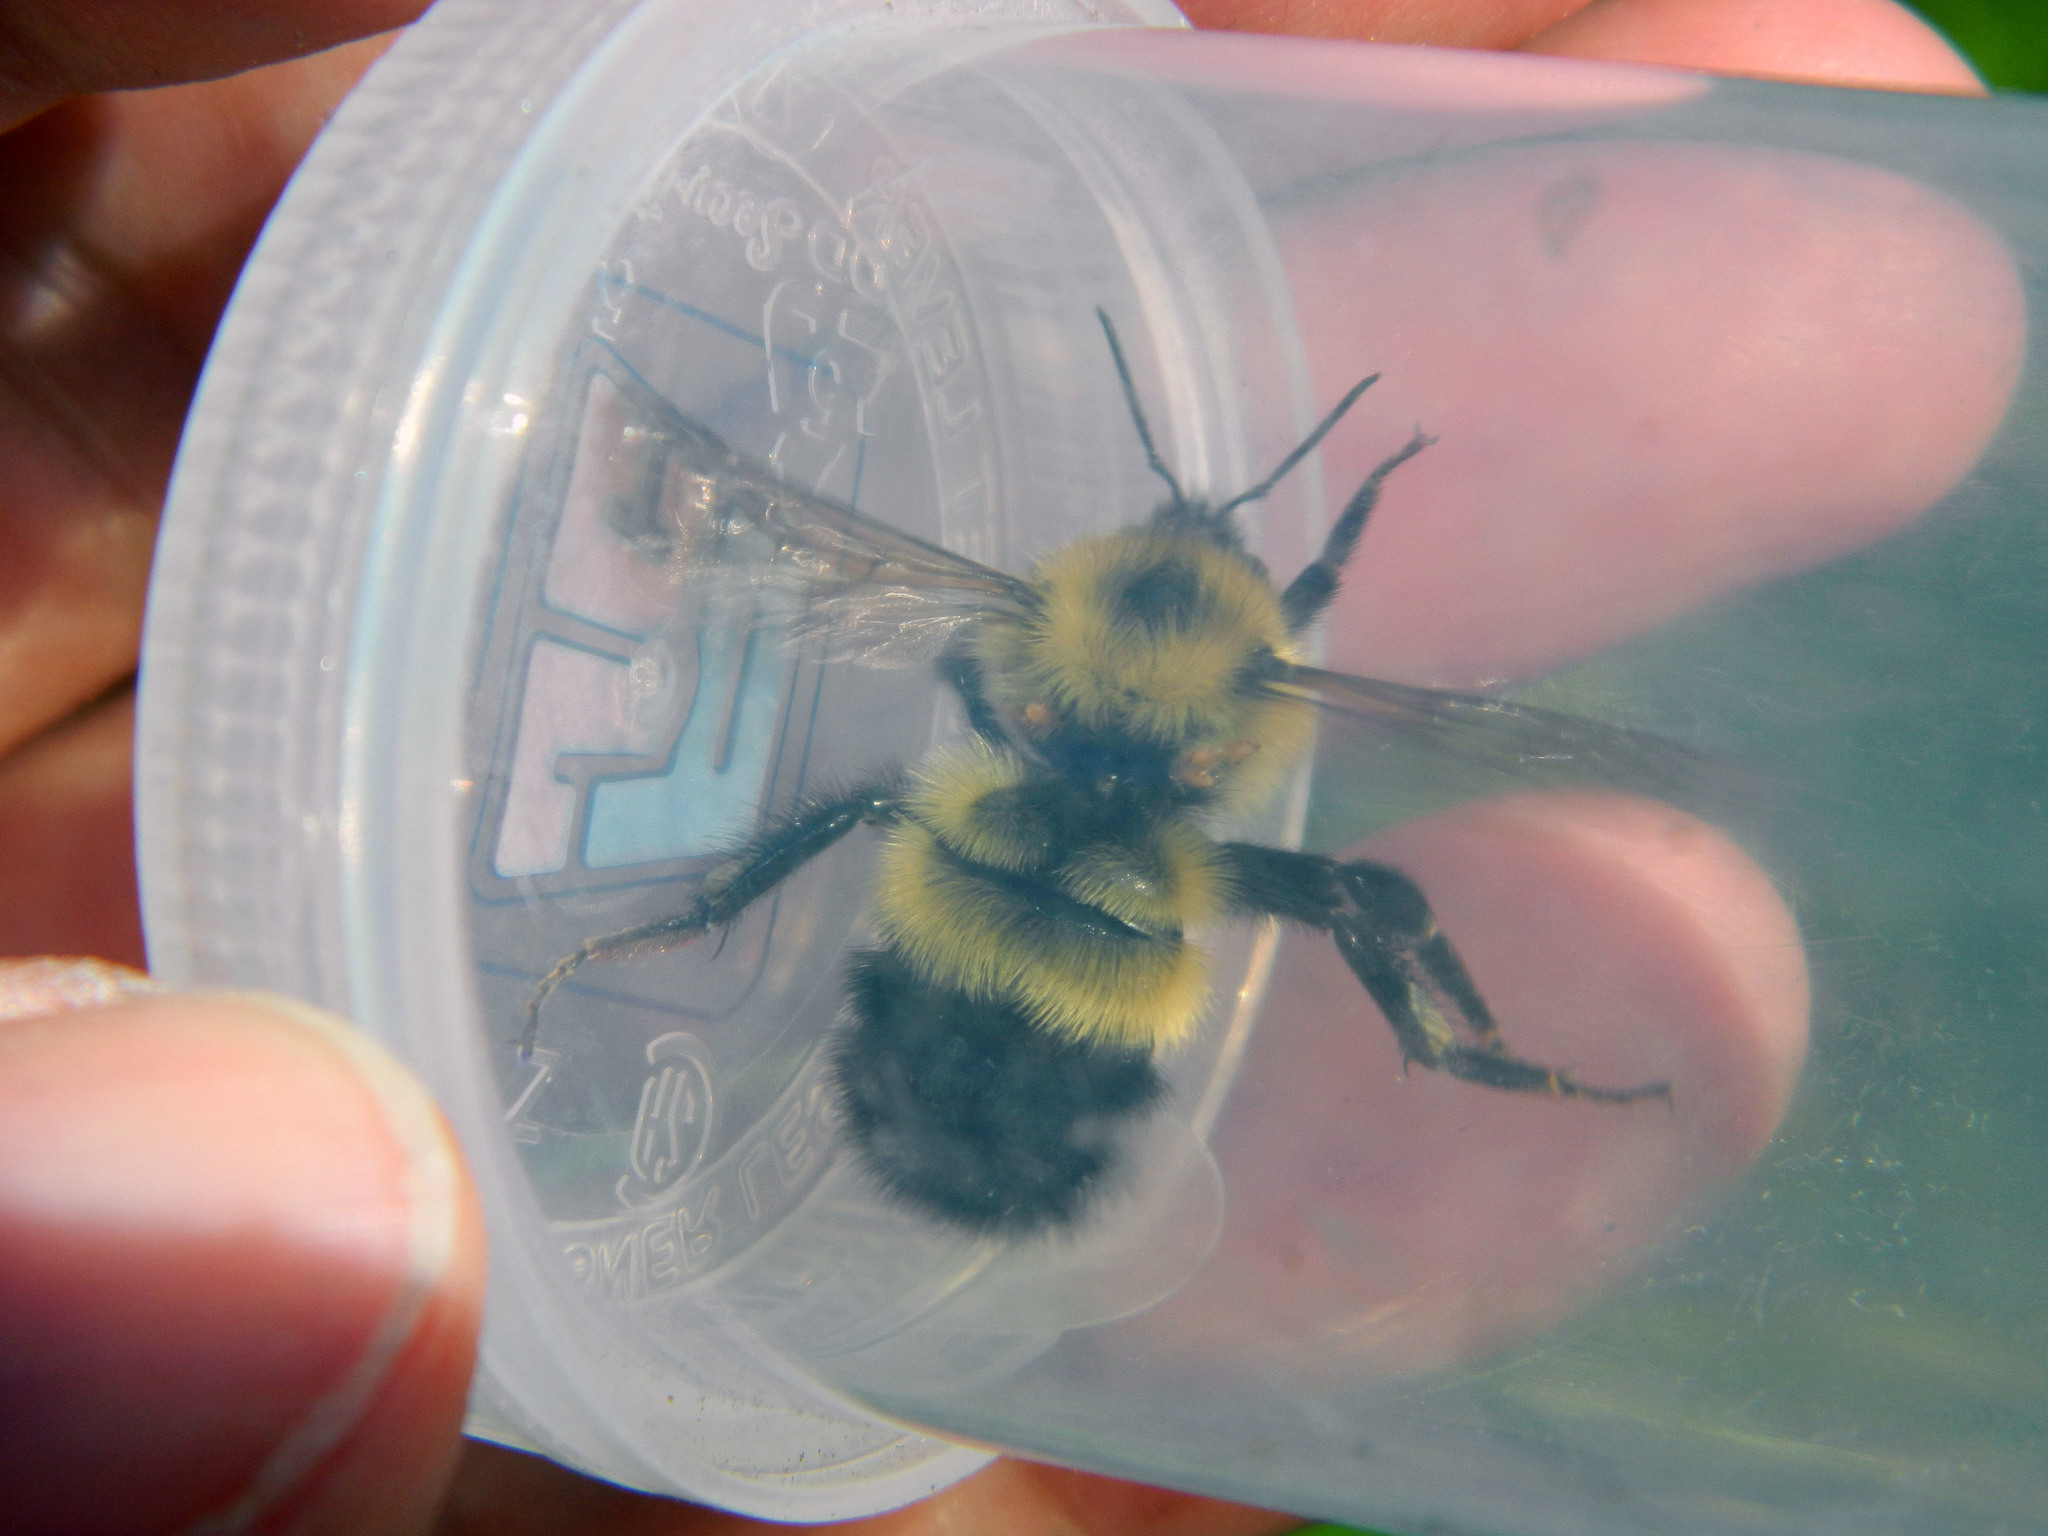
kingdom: Animalia
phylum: Arthropoda
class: Insecta
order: Hymenoptera
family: Apidae
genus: Pyrobombus
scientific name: Pyrobombus
